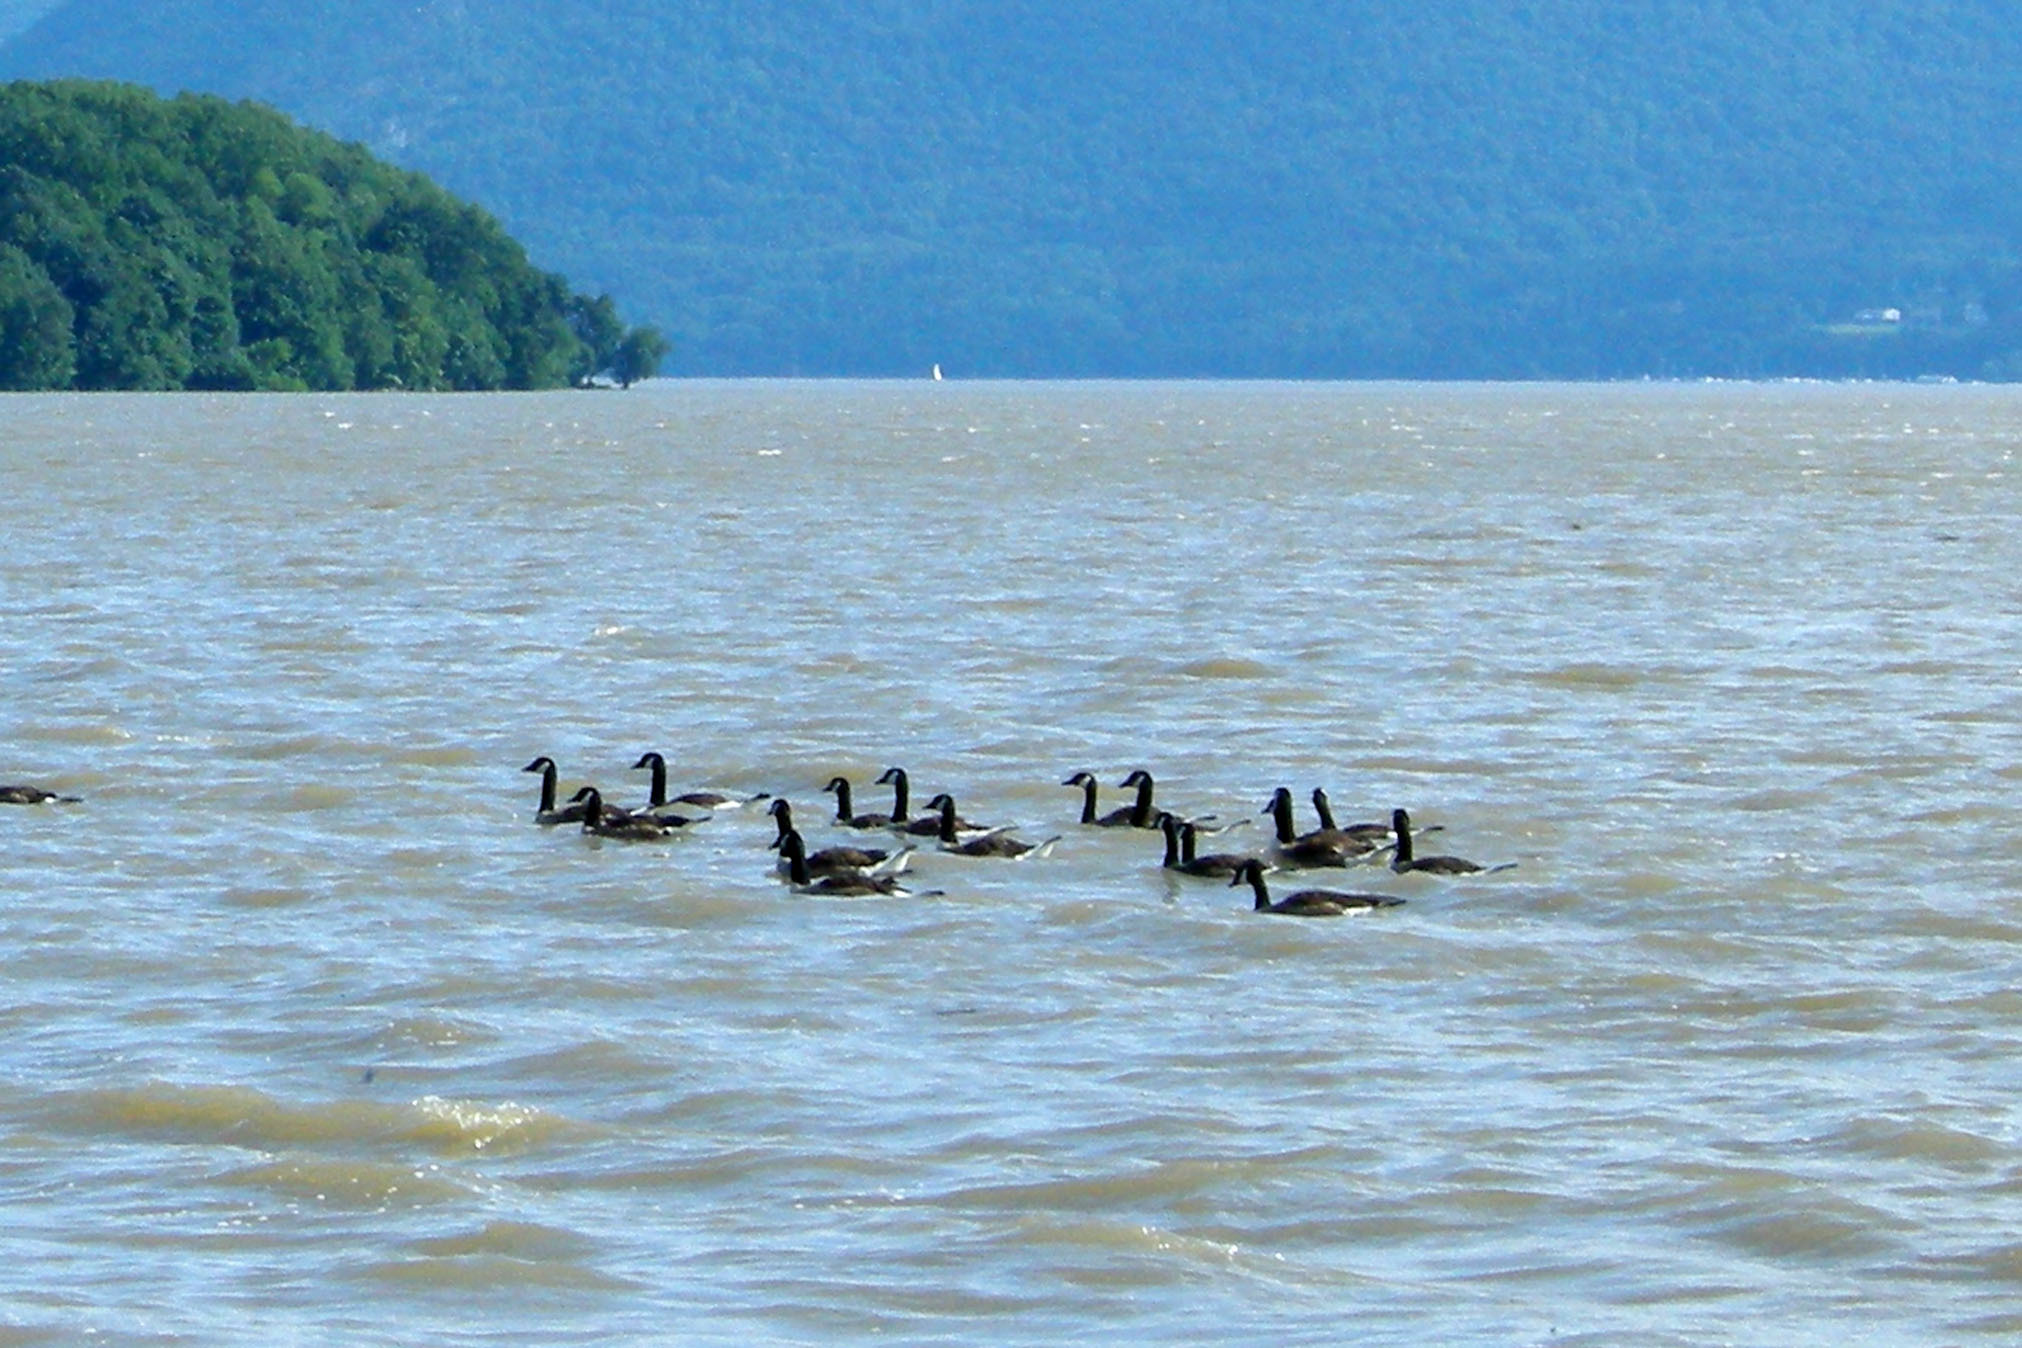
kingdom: Animalia
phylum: Chordata
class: Aves
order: Anseriformes
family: Anatidae
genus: Branta
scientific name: Branta canadensis
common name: Canada goose
